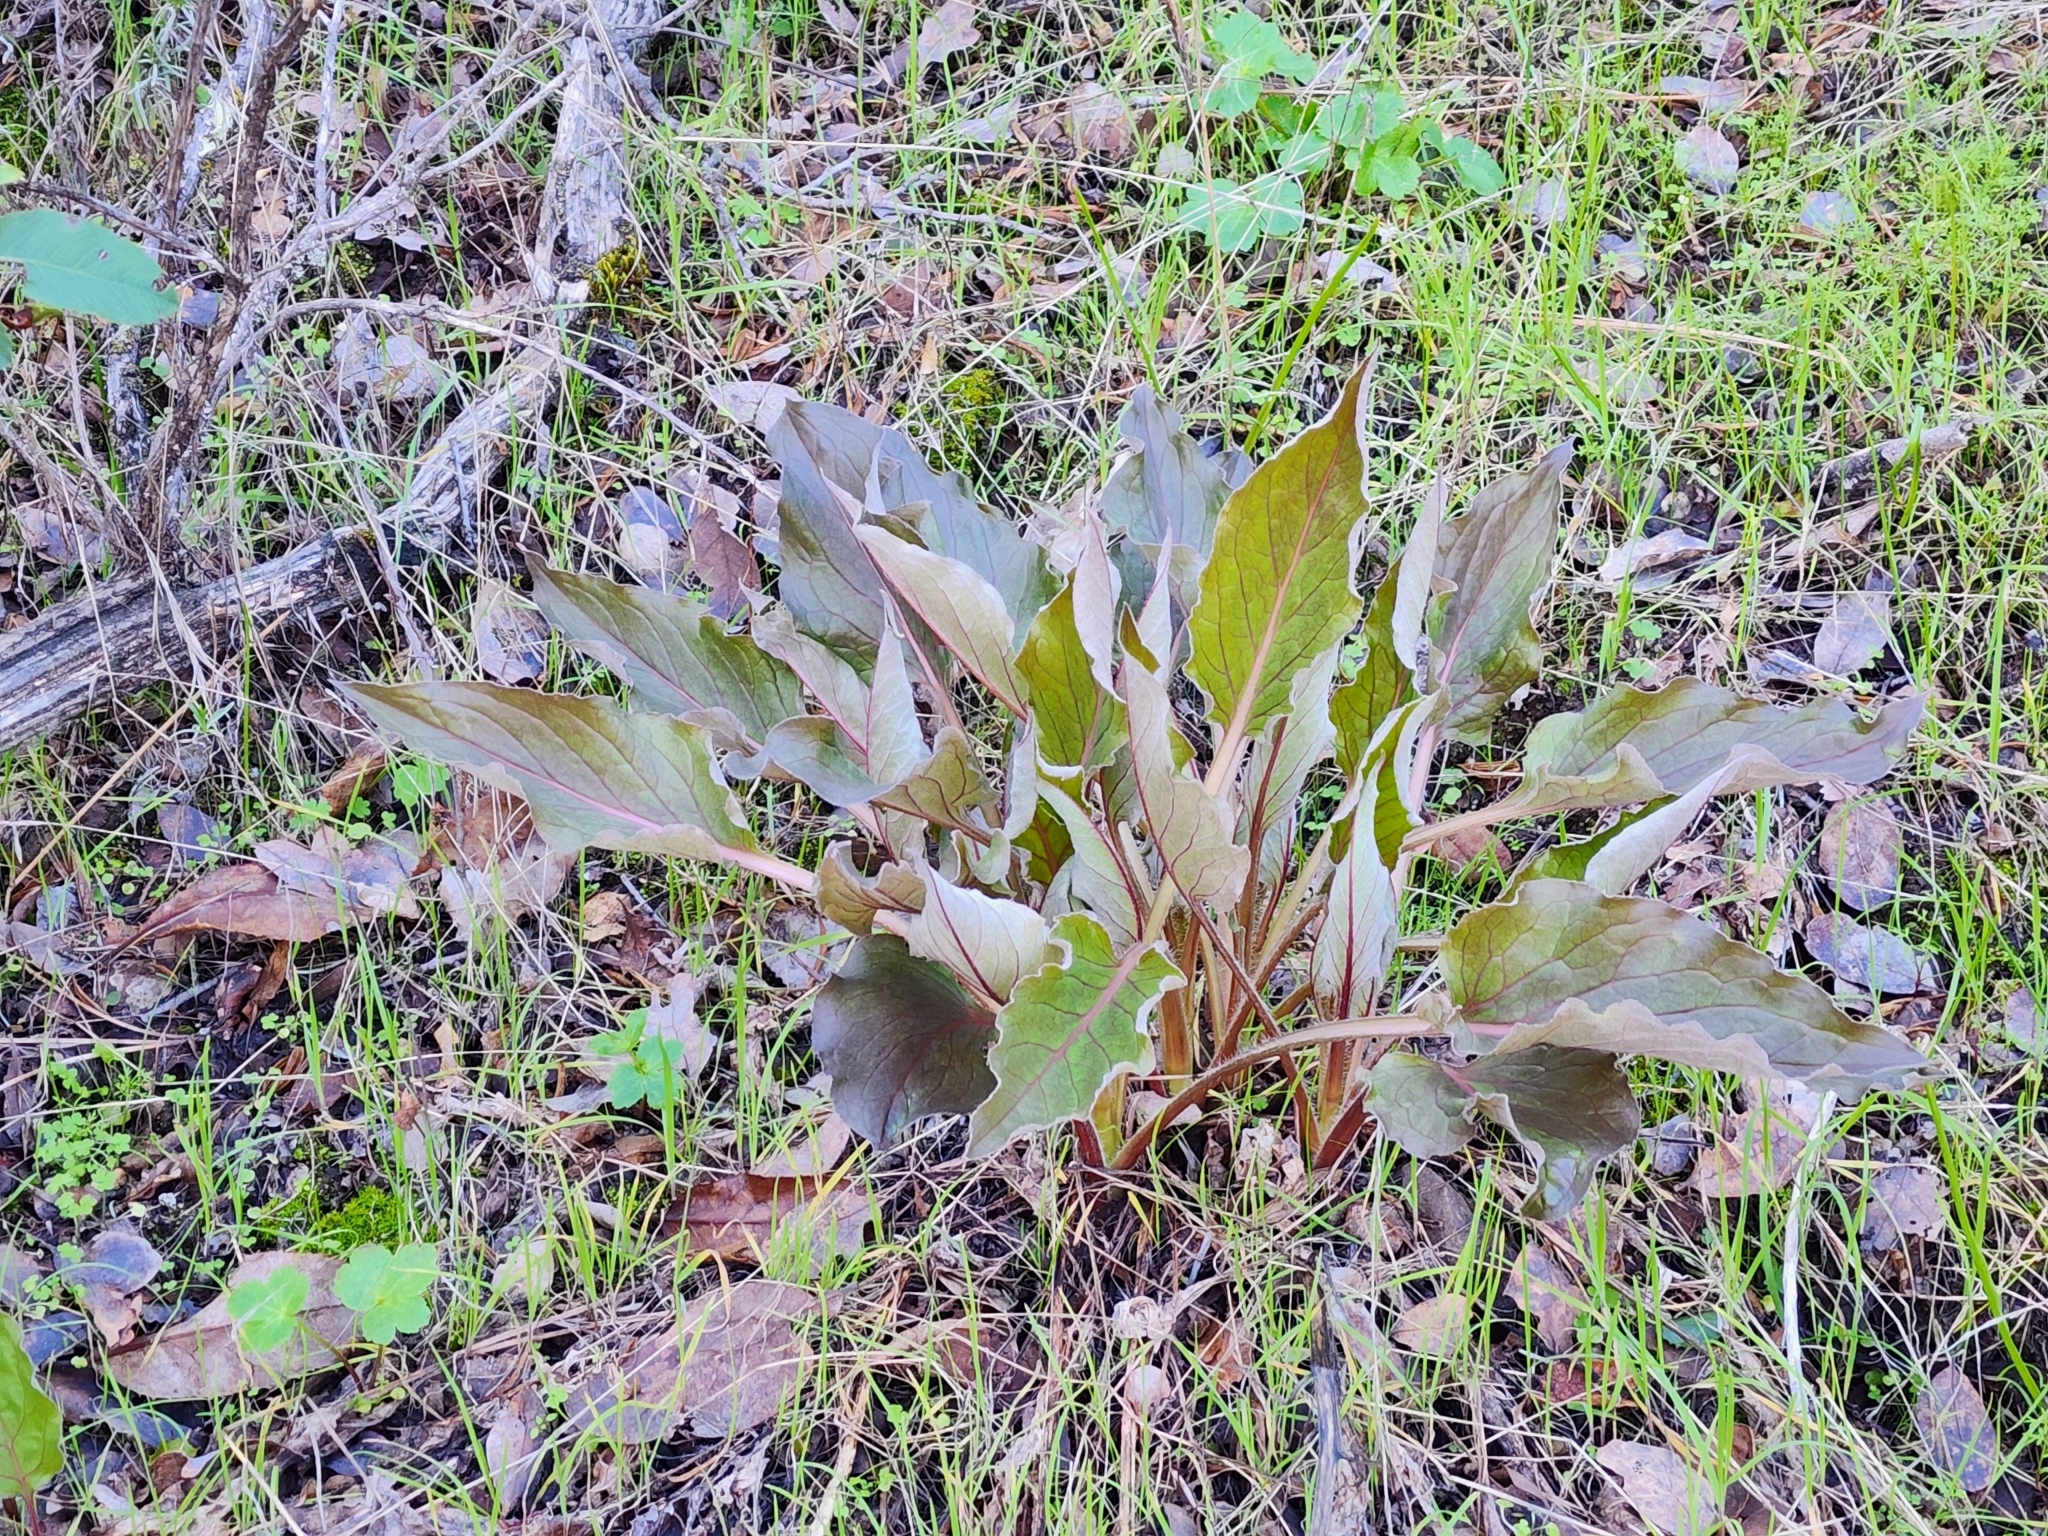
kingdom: Plantae
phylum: Tracheophyta
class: Magnoliopsida
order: Boraginales
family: Boraginaceae
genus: Adelinia
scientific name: Adelinia grande
